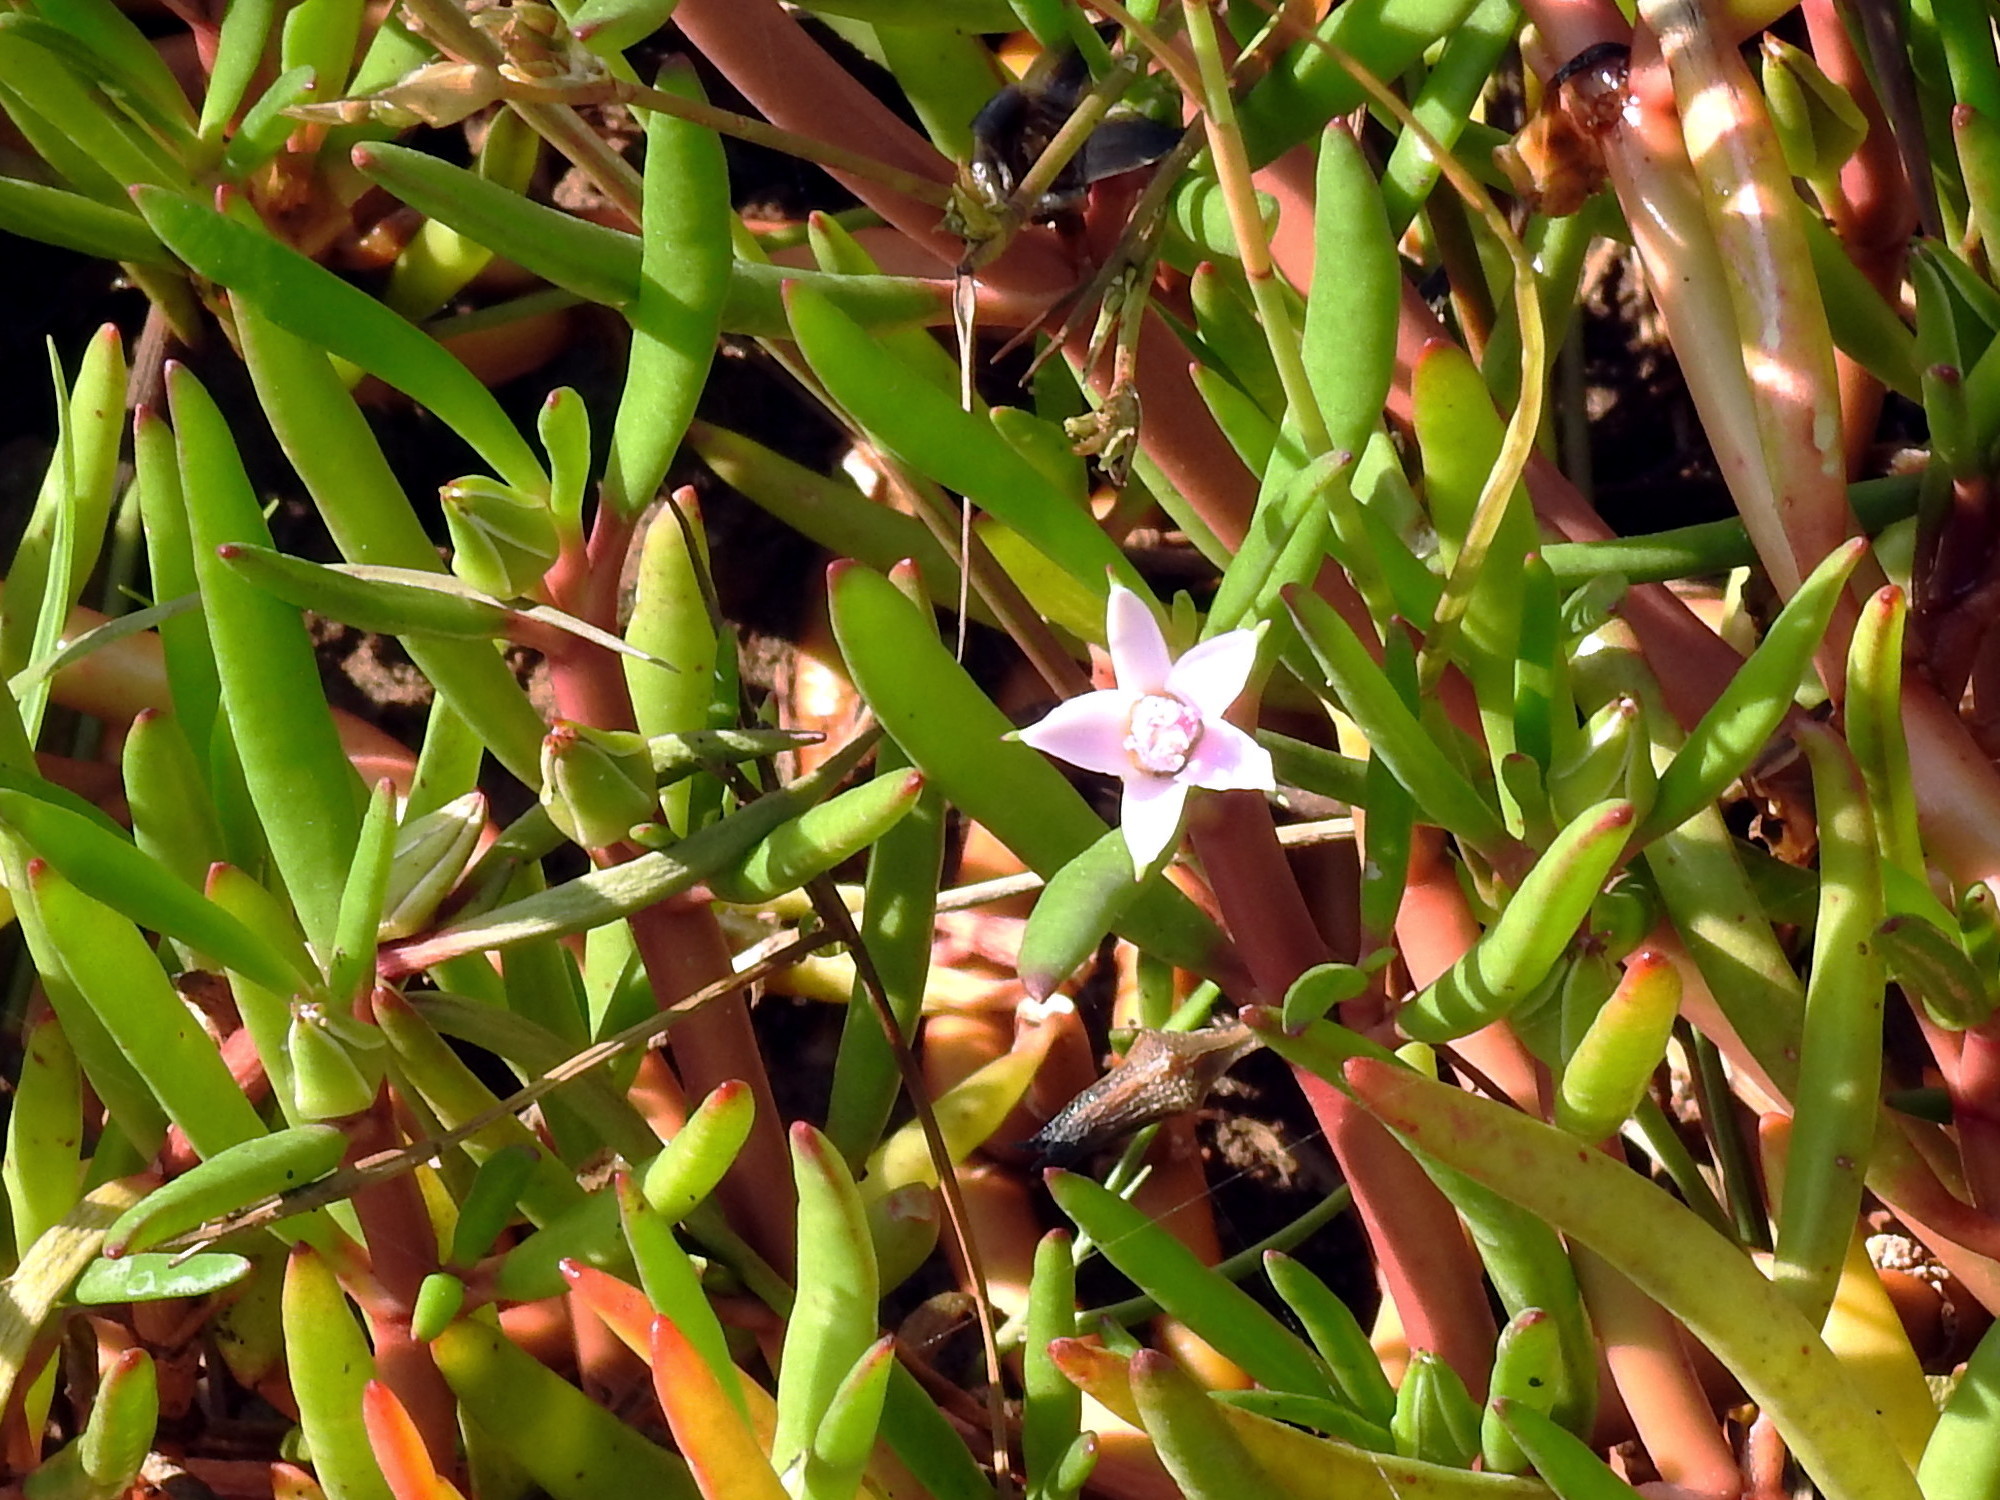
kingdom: Plantae
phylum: Tracheophyta
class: Magnoliopsida
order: Caryophyllales
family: Aizoaceae
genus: Sesuvium
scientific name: Sesuvium portulacastrum
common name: Sea-purslane
